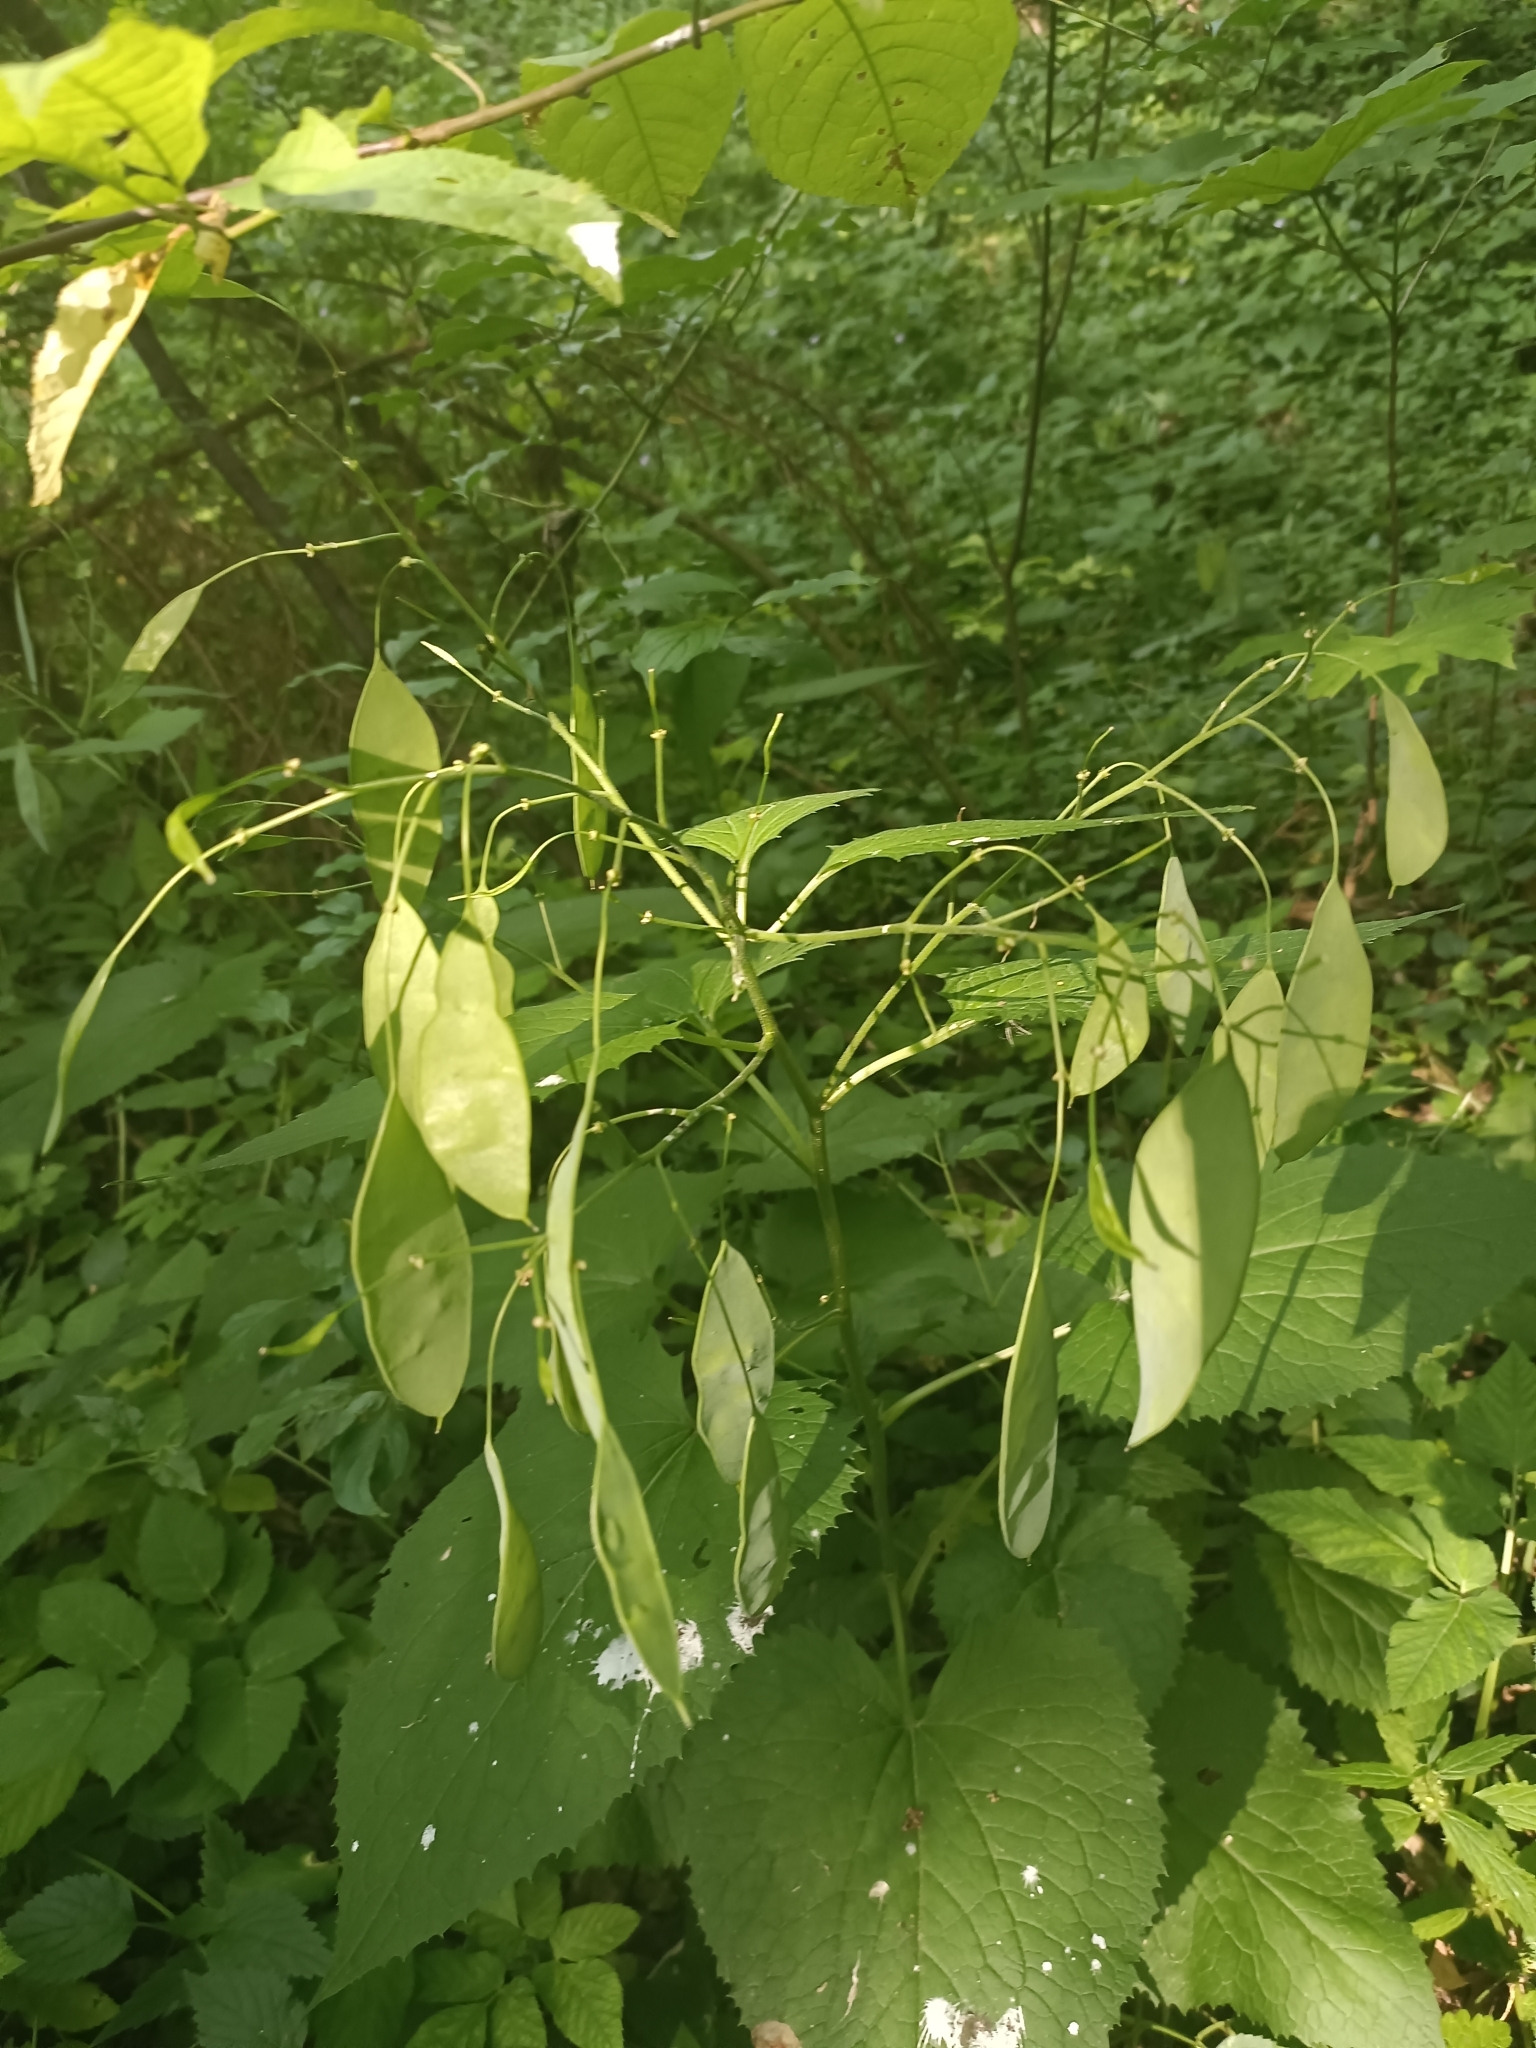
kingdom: Plantae
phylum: Tracheophyta
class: Magnoliopsida
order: Brassicales
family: Brassicaceae
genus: Lunaria
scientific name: Lunaria rediviva
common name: Perennial honesty
